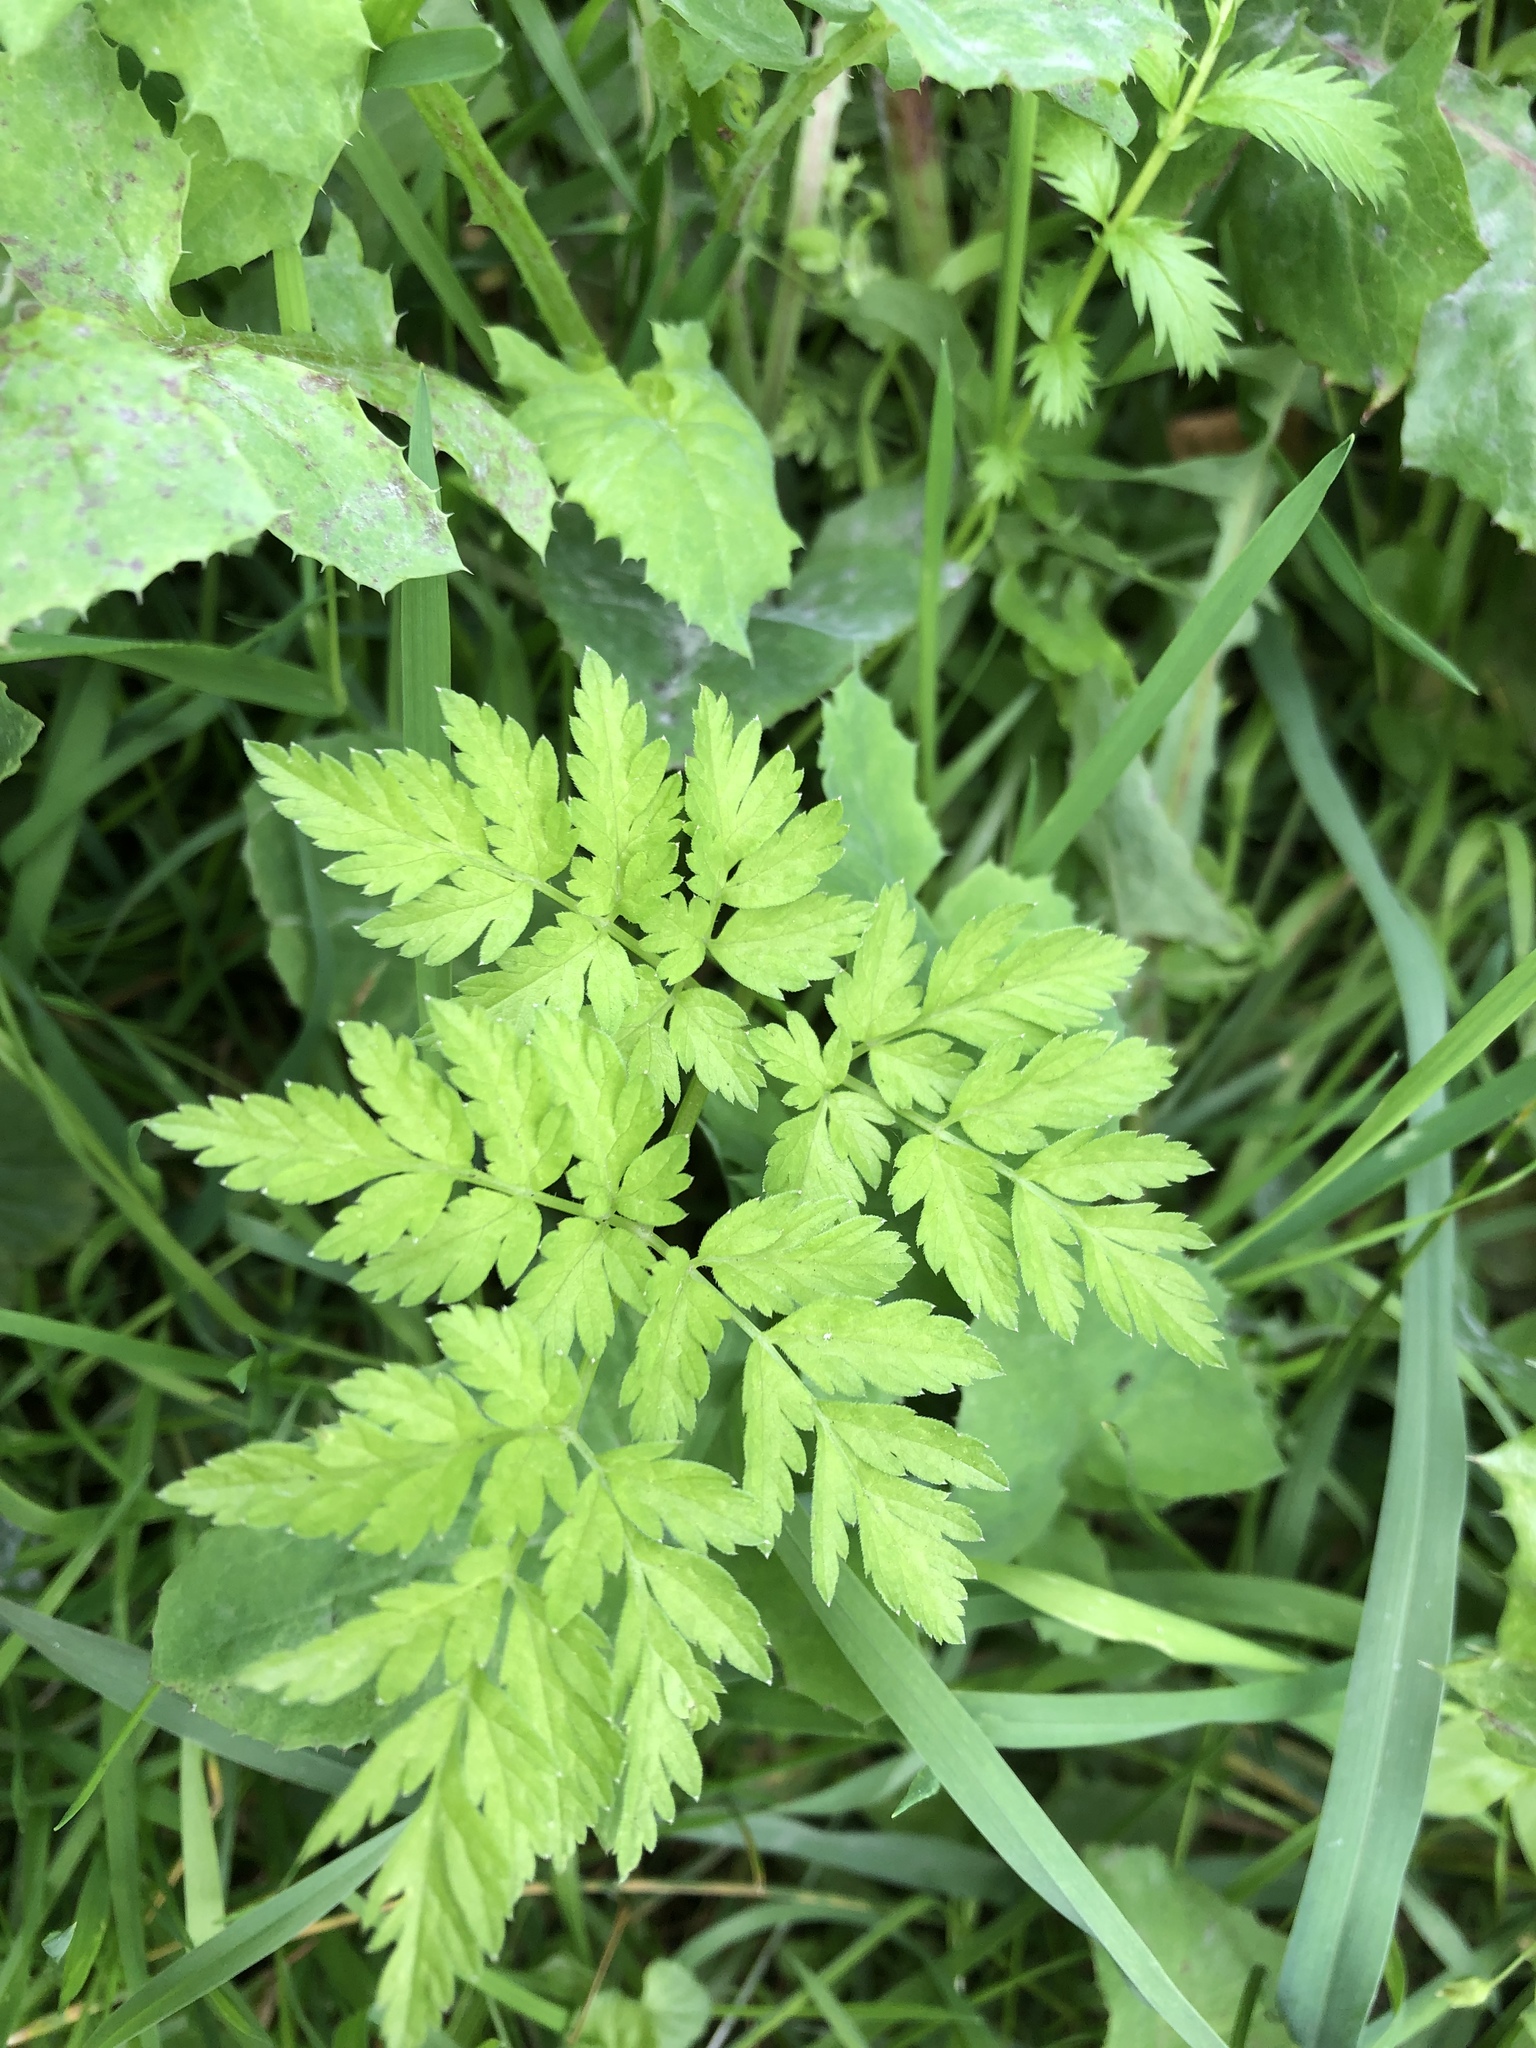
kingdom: Plantae
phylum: Tracheophyta
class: Magnoliopsida
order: Apiales
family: Apiaceae
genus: Anthriscus
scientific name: Anthriscus sylvestris
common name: Cow parsley
